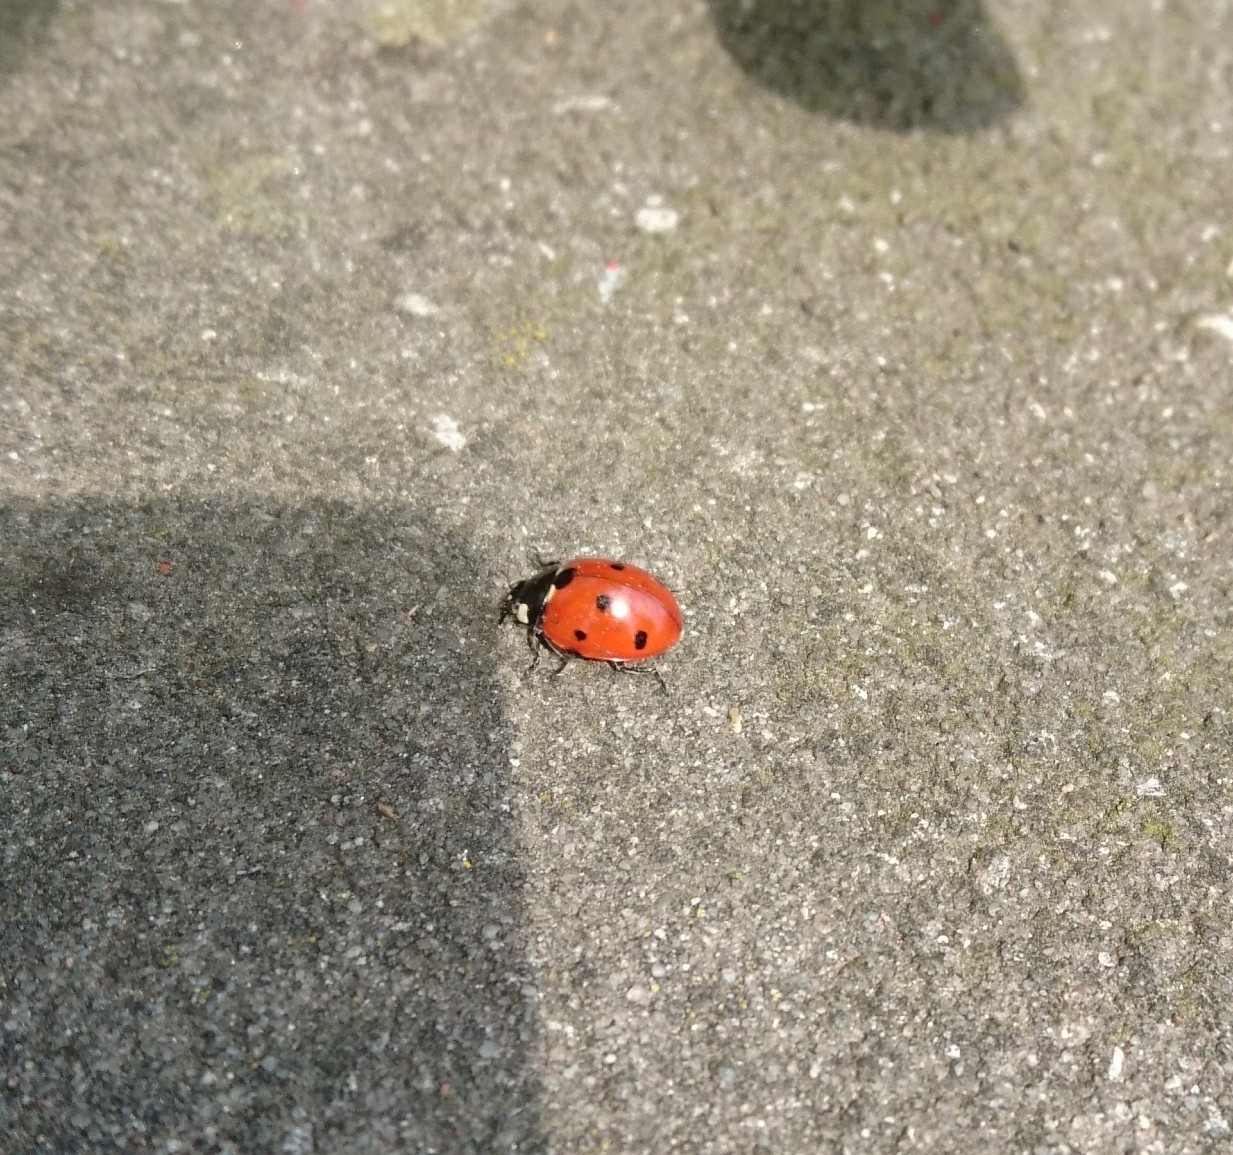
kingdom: Animalia
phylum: Arthropoda
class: Insecta
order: Coleoptera
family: Coccinellidae
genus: Coccinella
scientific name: Coccinella septempunctata
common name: Sevenspotted lady beetle
